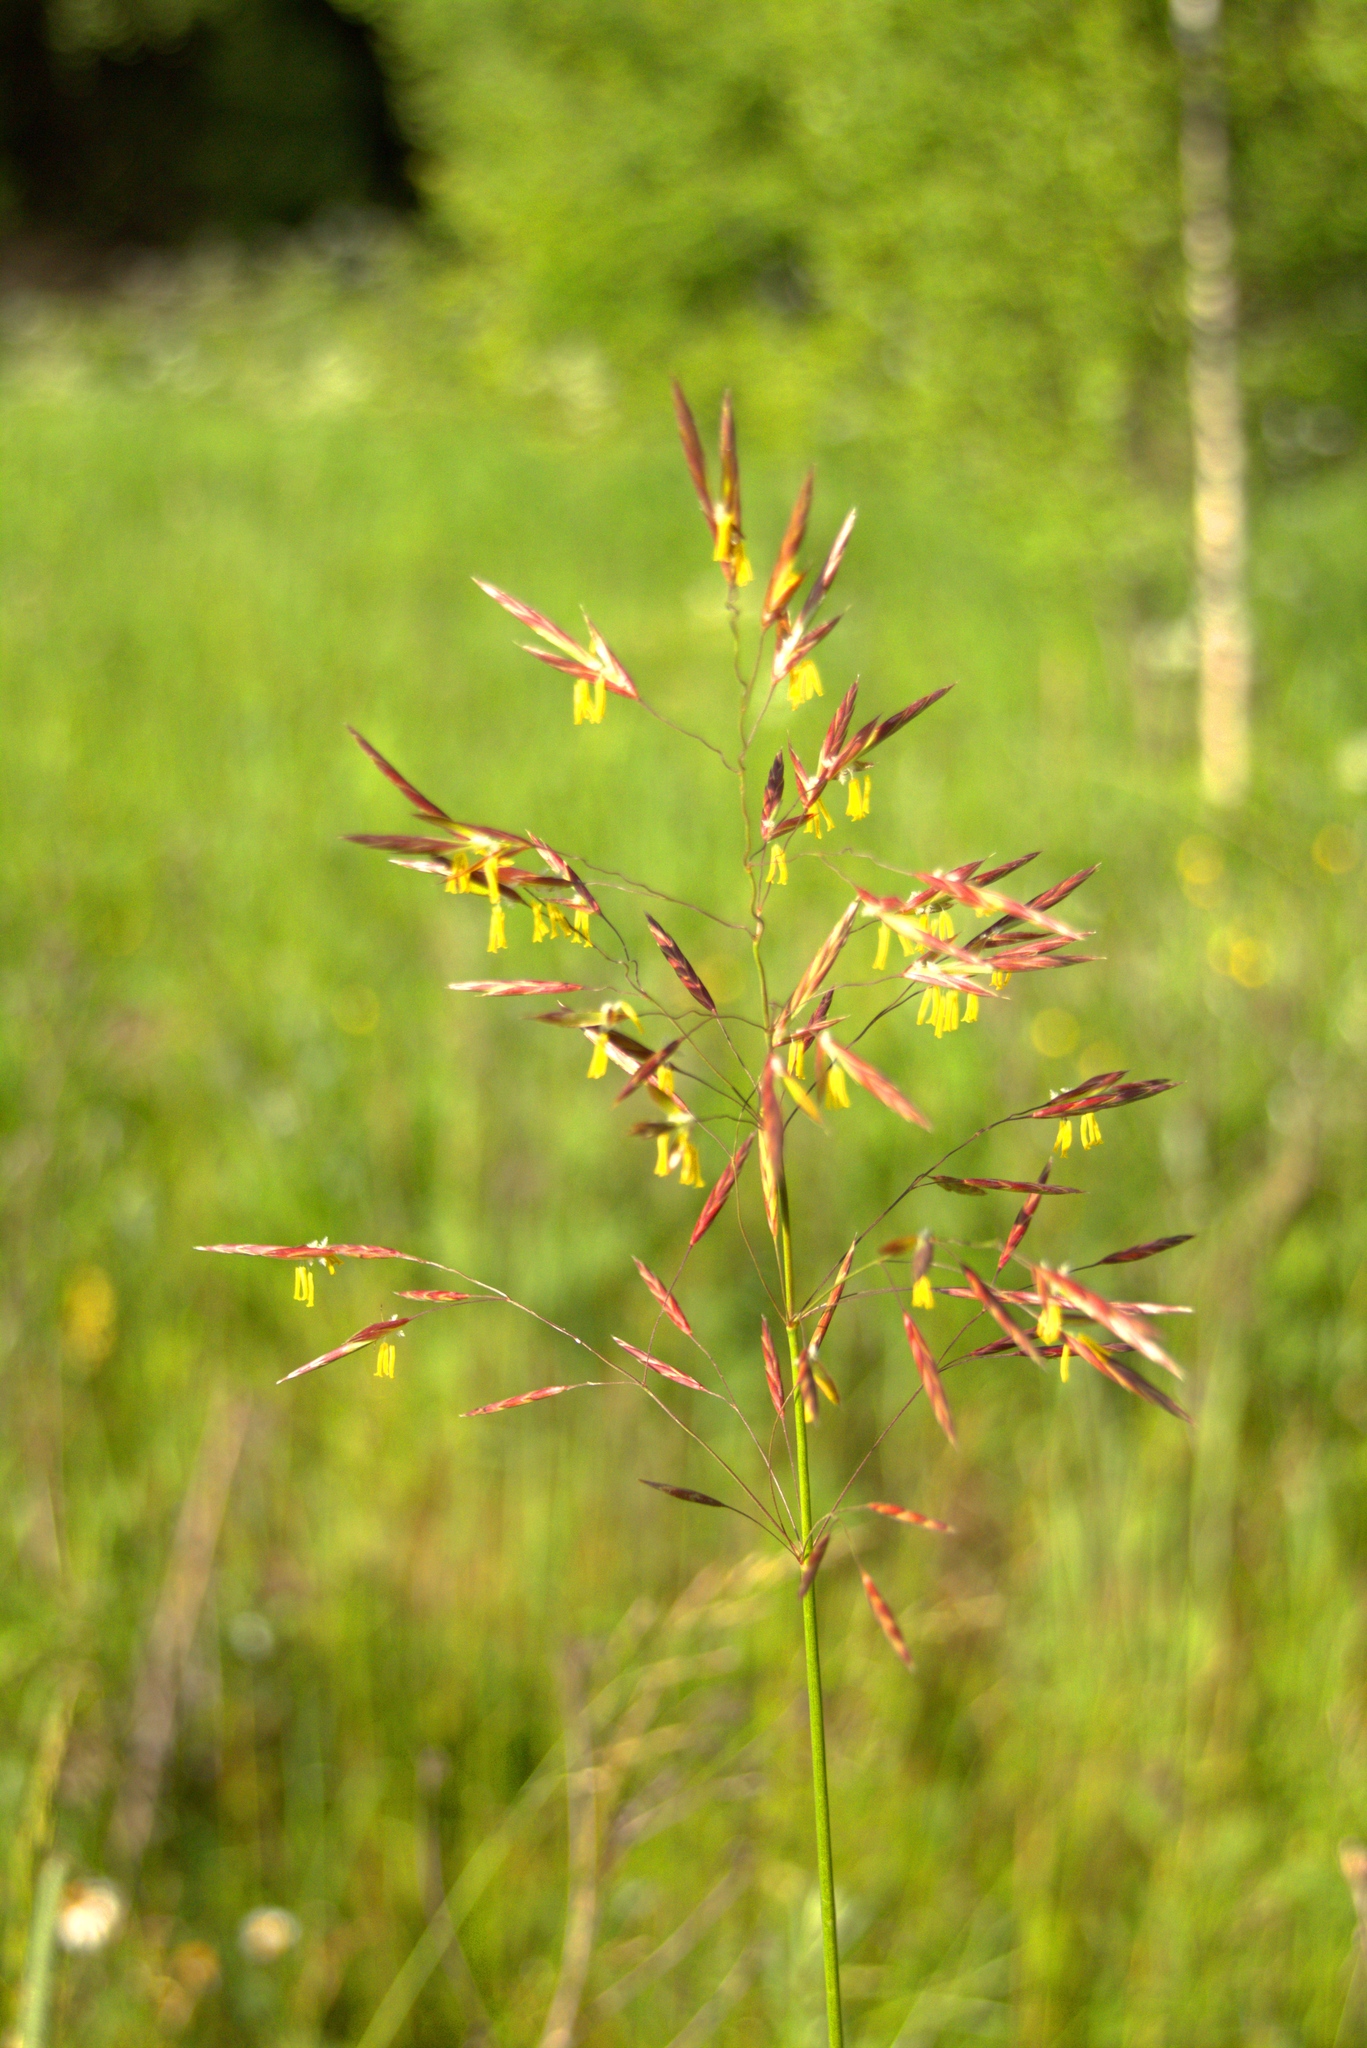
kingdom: Plantae
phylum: Tracheophyta
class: Liliopsida
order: Poales
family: Poaceae
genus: Bromus
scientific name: Bromus inermis
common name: Smooth brome
